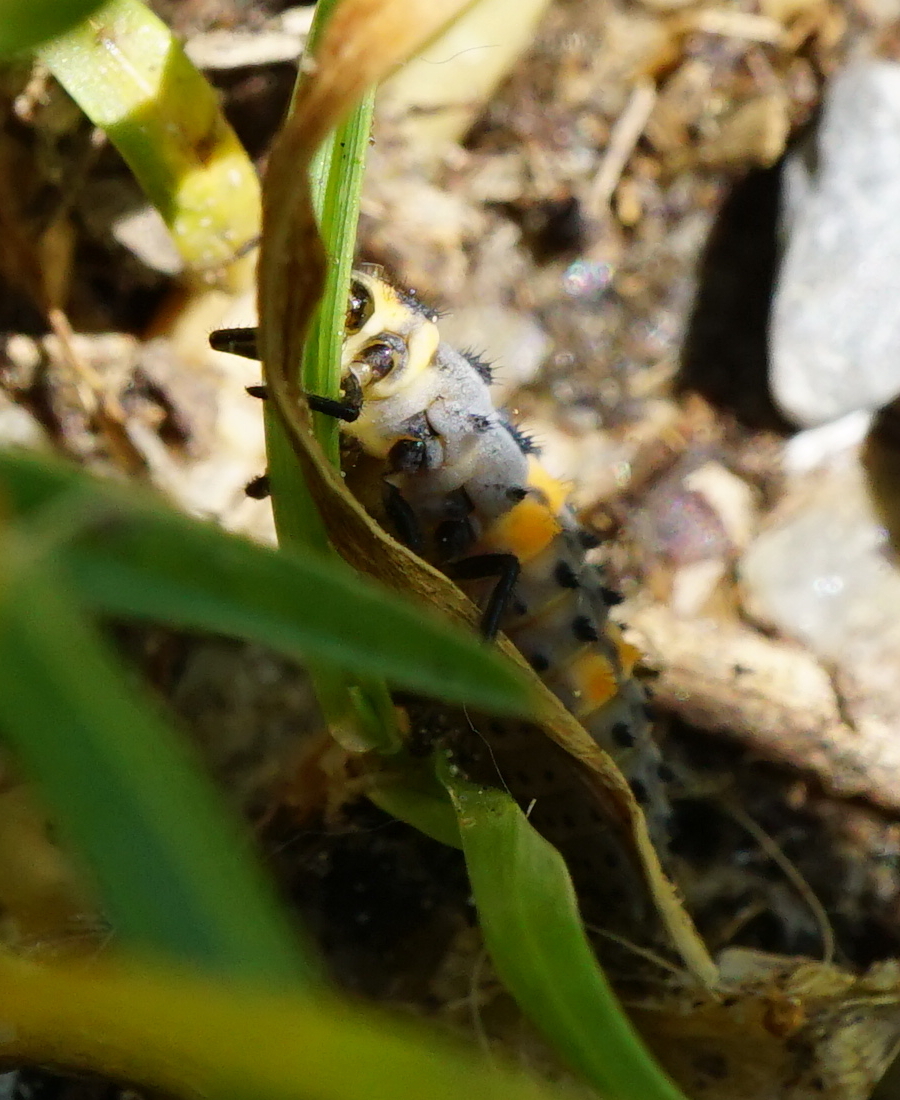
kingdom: Animalia
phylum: Arthropoda
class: Insecta
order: Coleoptera
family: Coccinellidae
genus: Coccinella
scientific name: Coccinella septempunctata
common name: Sevenspotted lady beetle
